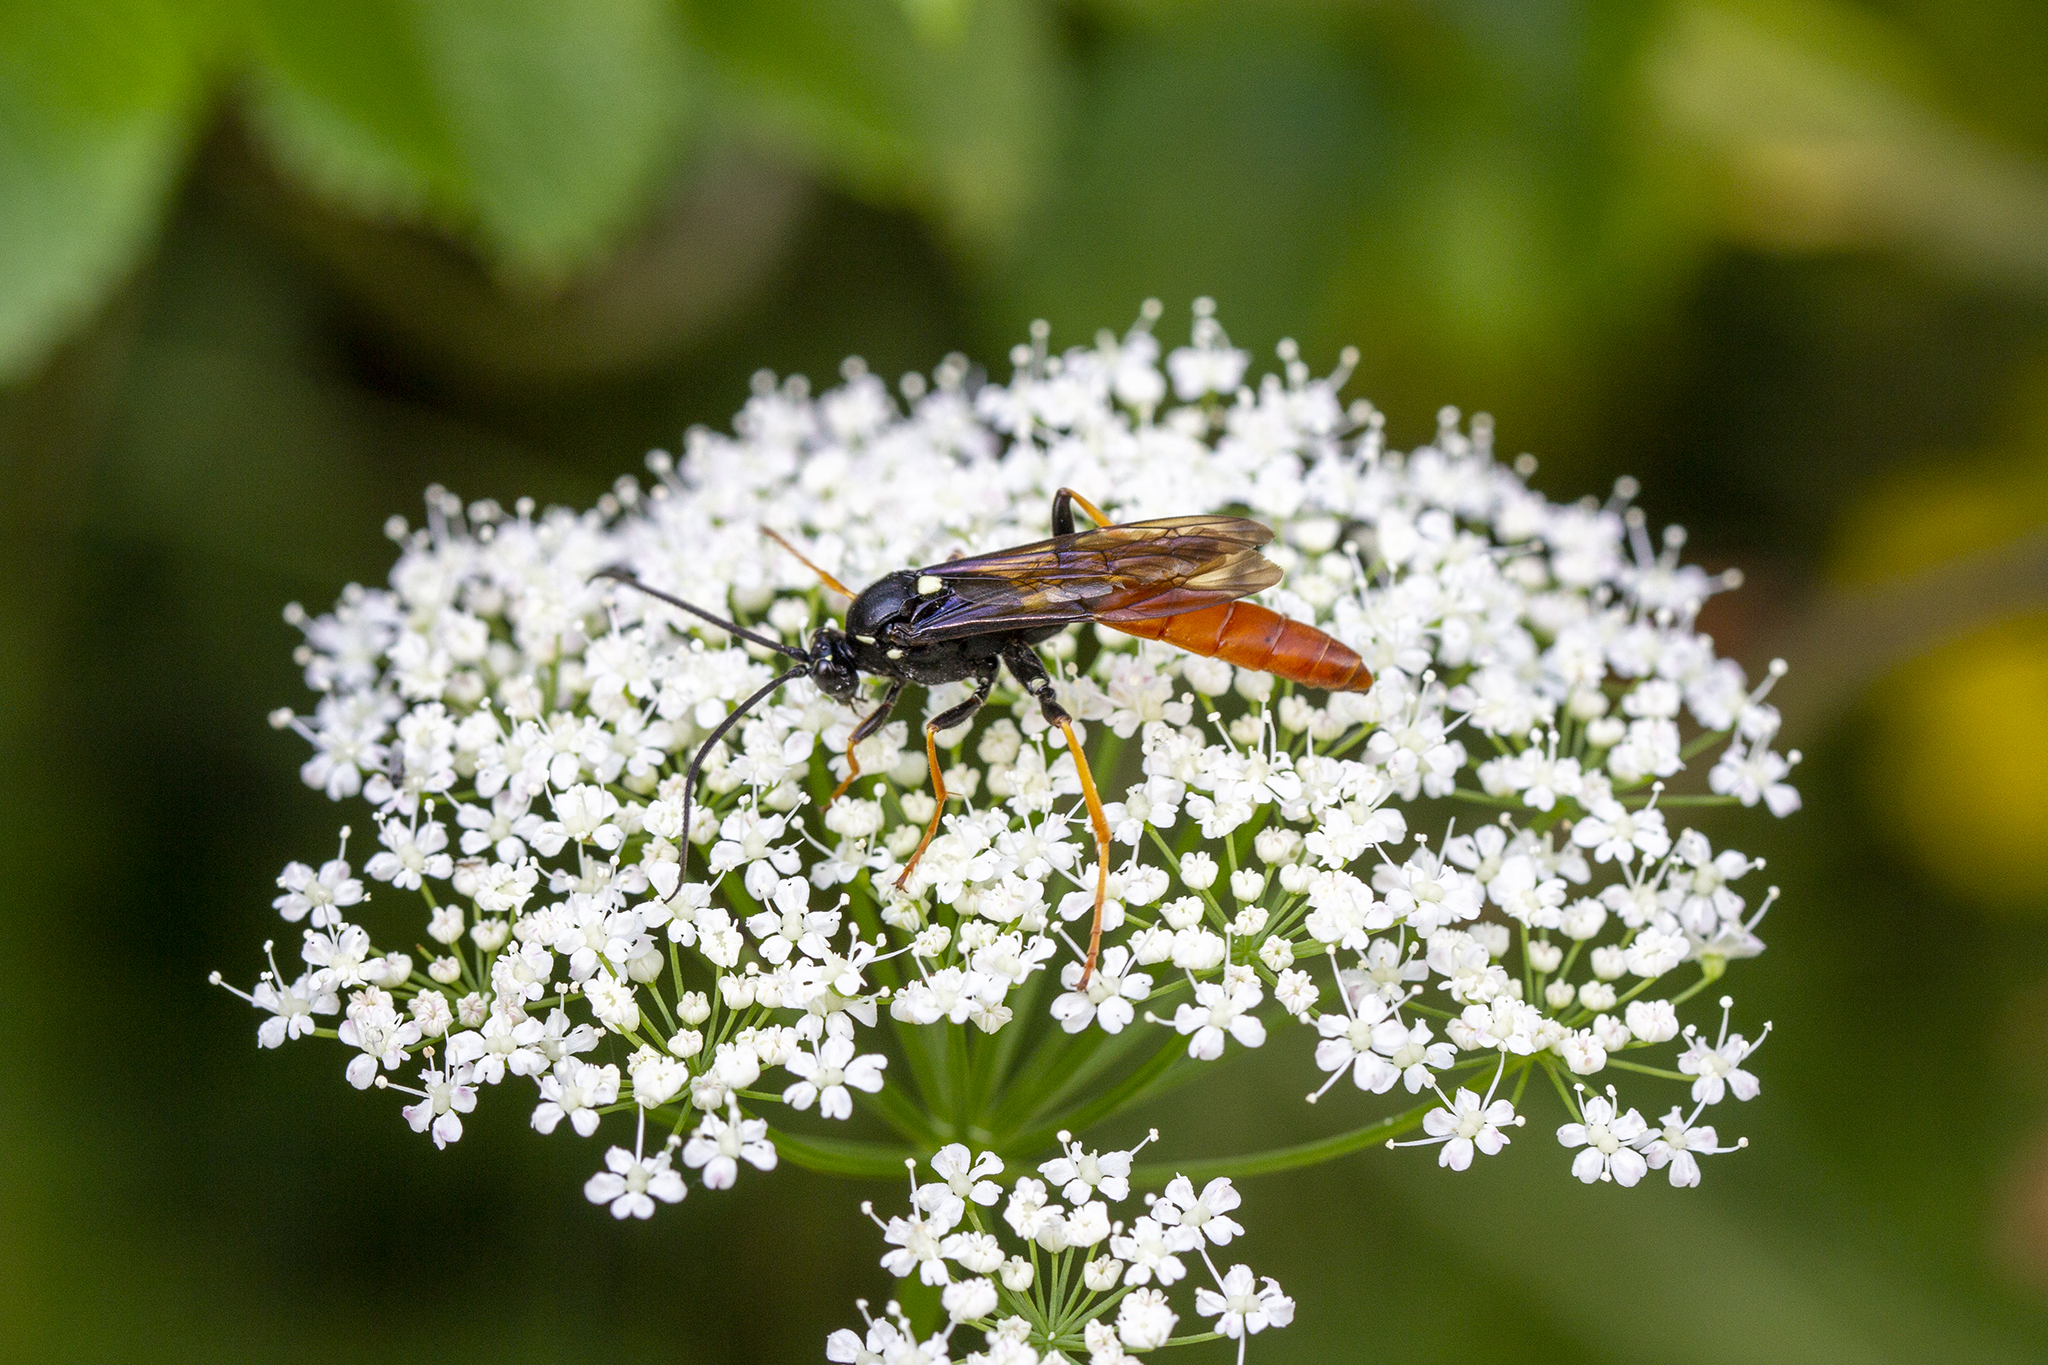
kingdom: Animalia
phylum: Arthropoda
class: Insecta
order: Hymenoptera
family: Ichneumonidae
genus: Amblyjoppa
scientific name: Amblyjoppa fuscipennis
